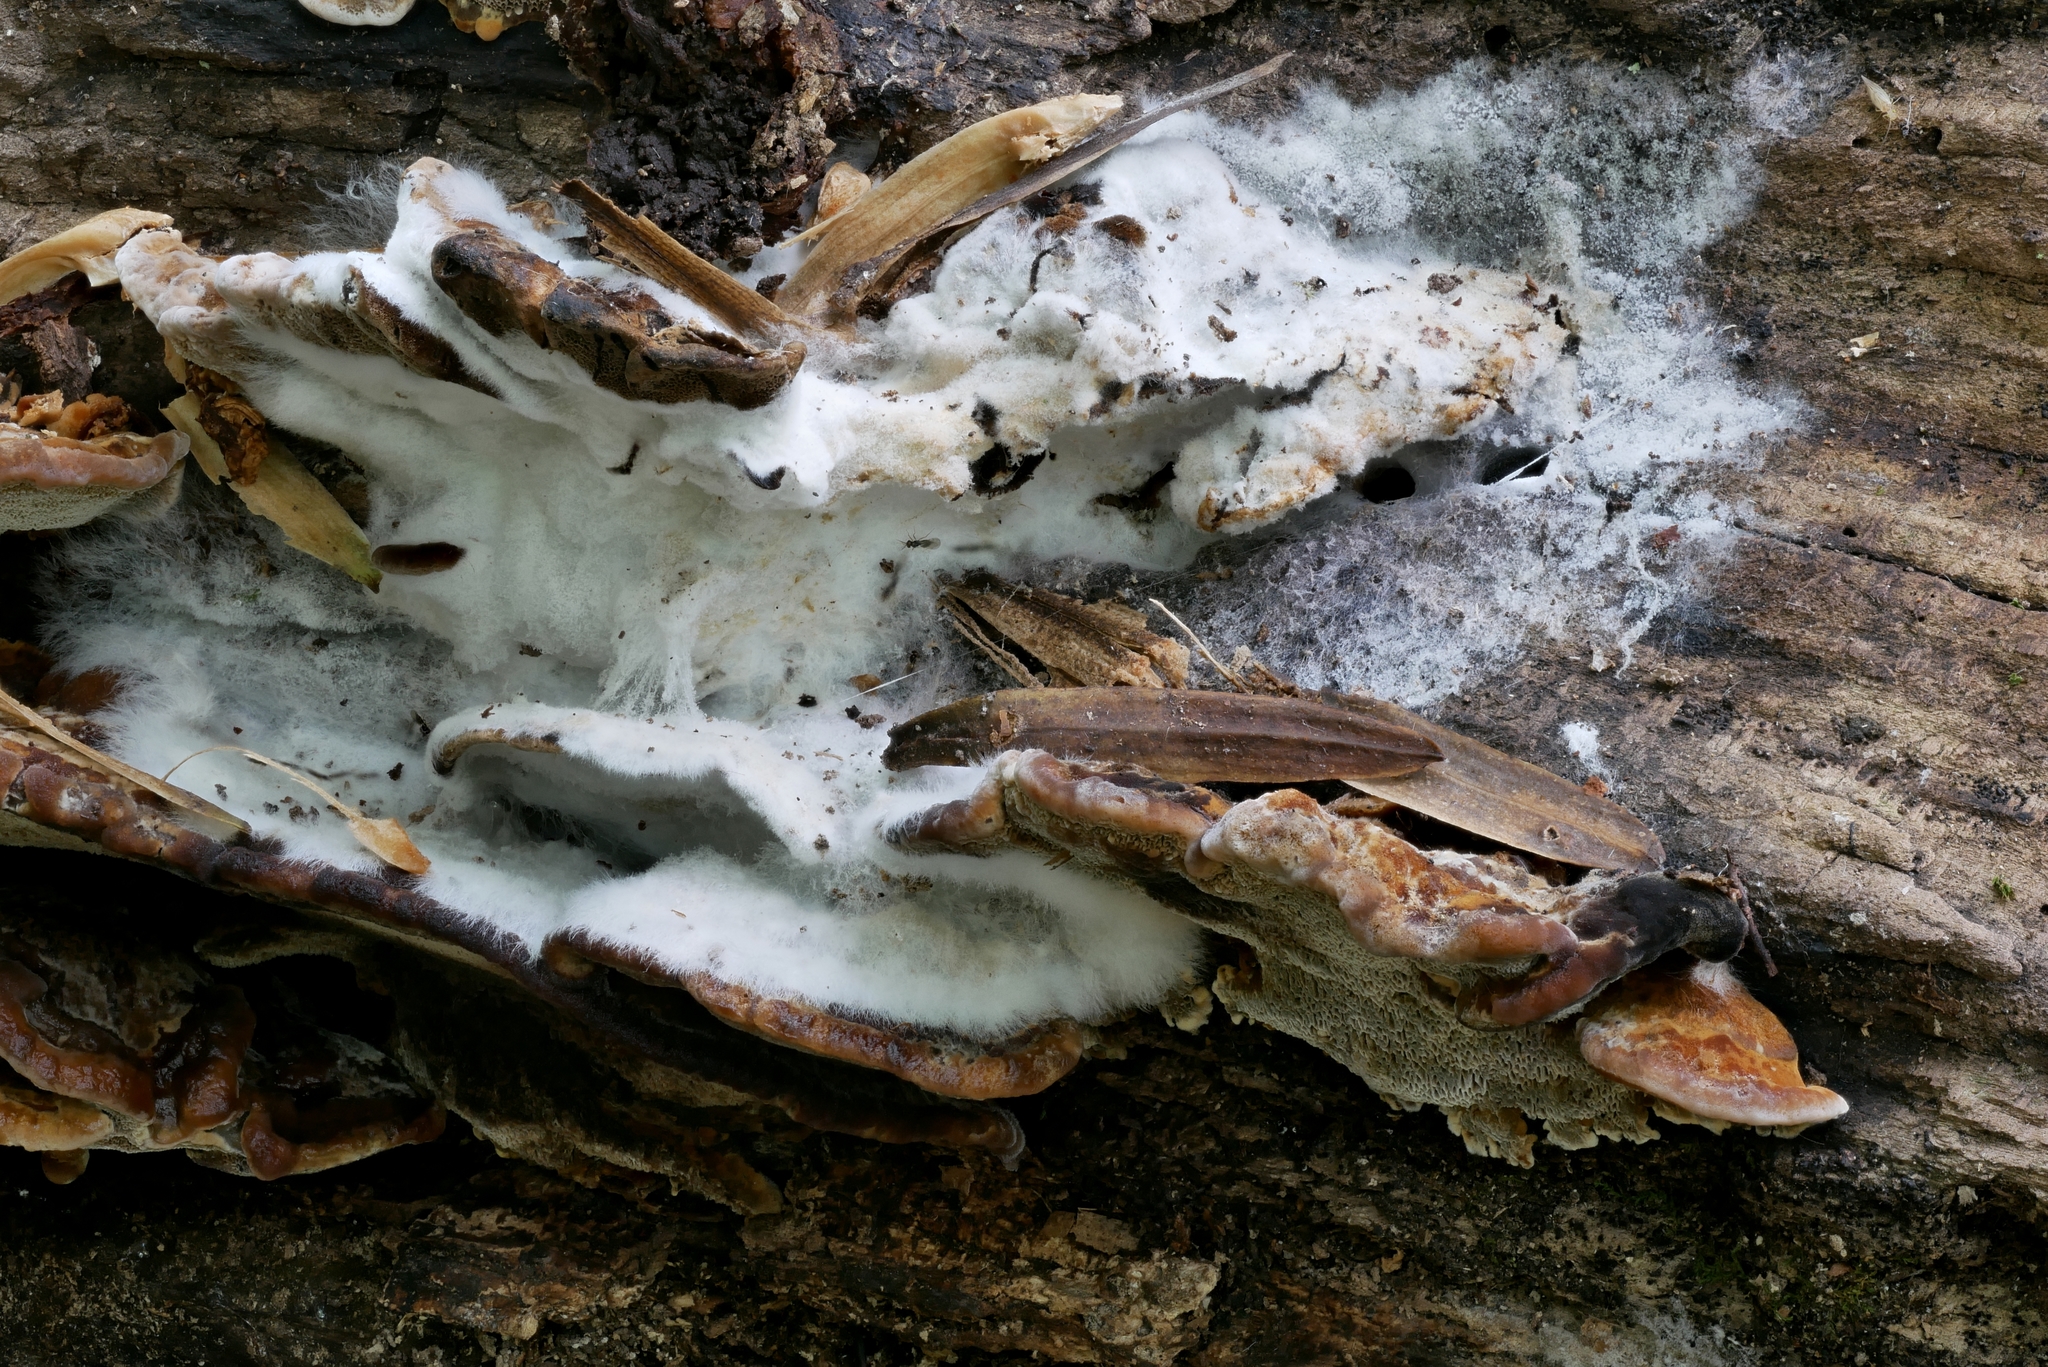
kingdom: Fungi
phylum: Ascomycota
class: Sordariomycetes
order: Hypocreales
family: Hypocreaceae
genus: Hypomyces
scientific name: Hypomyces rosellus
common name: Pink polypore mould
